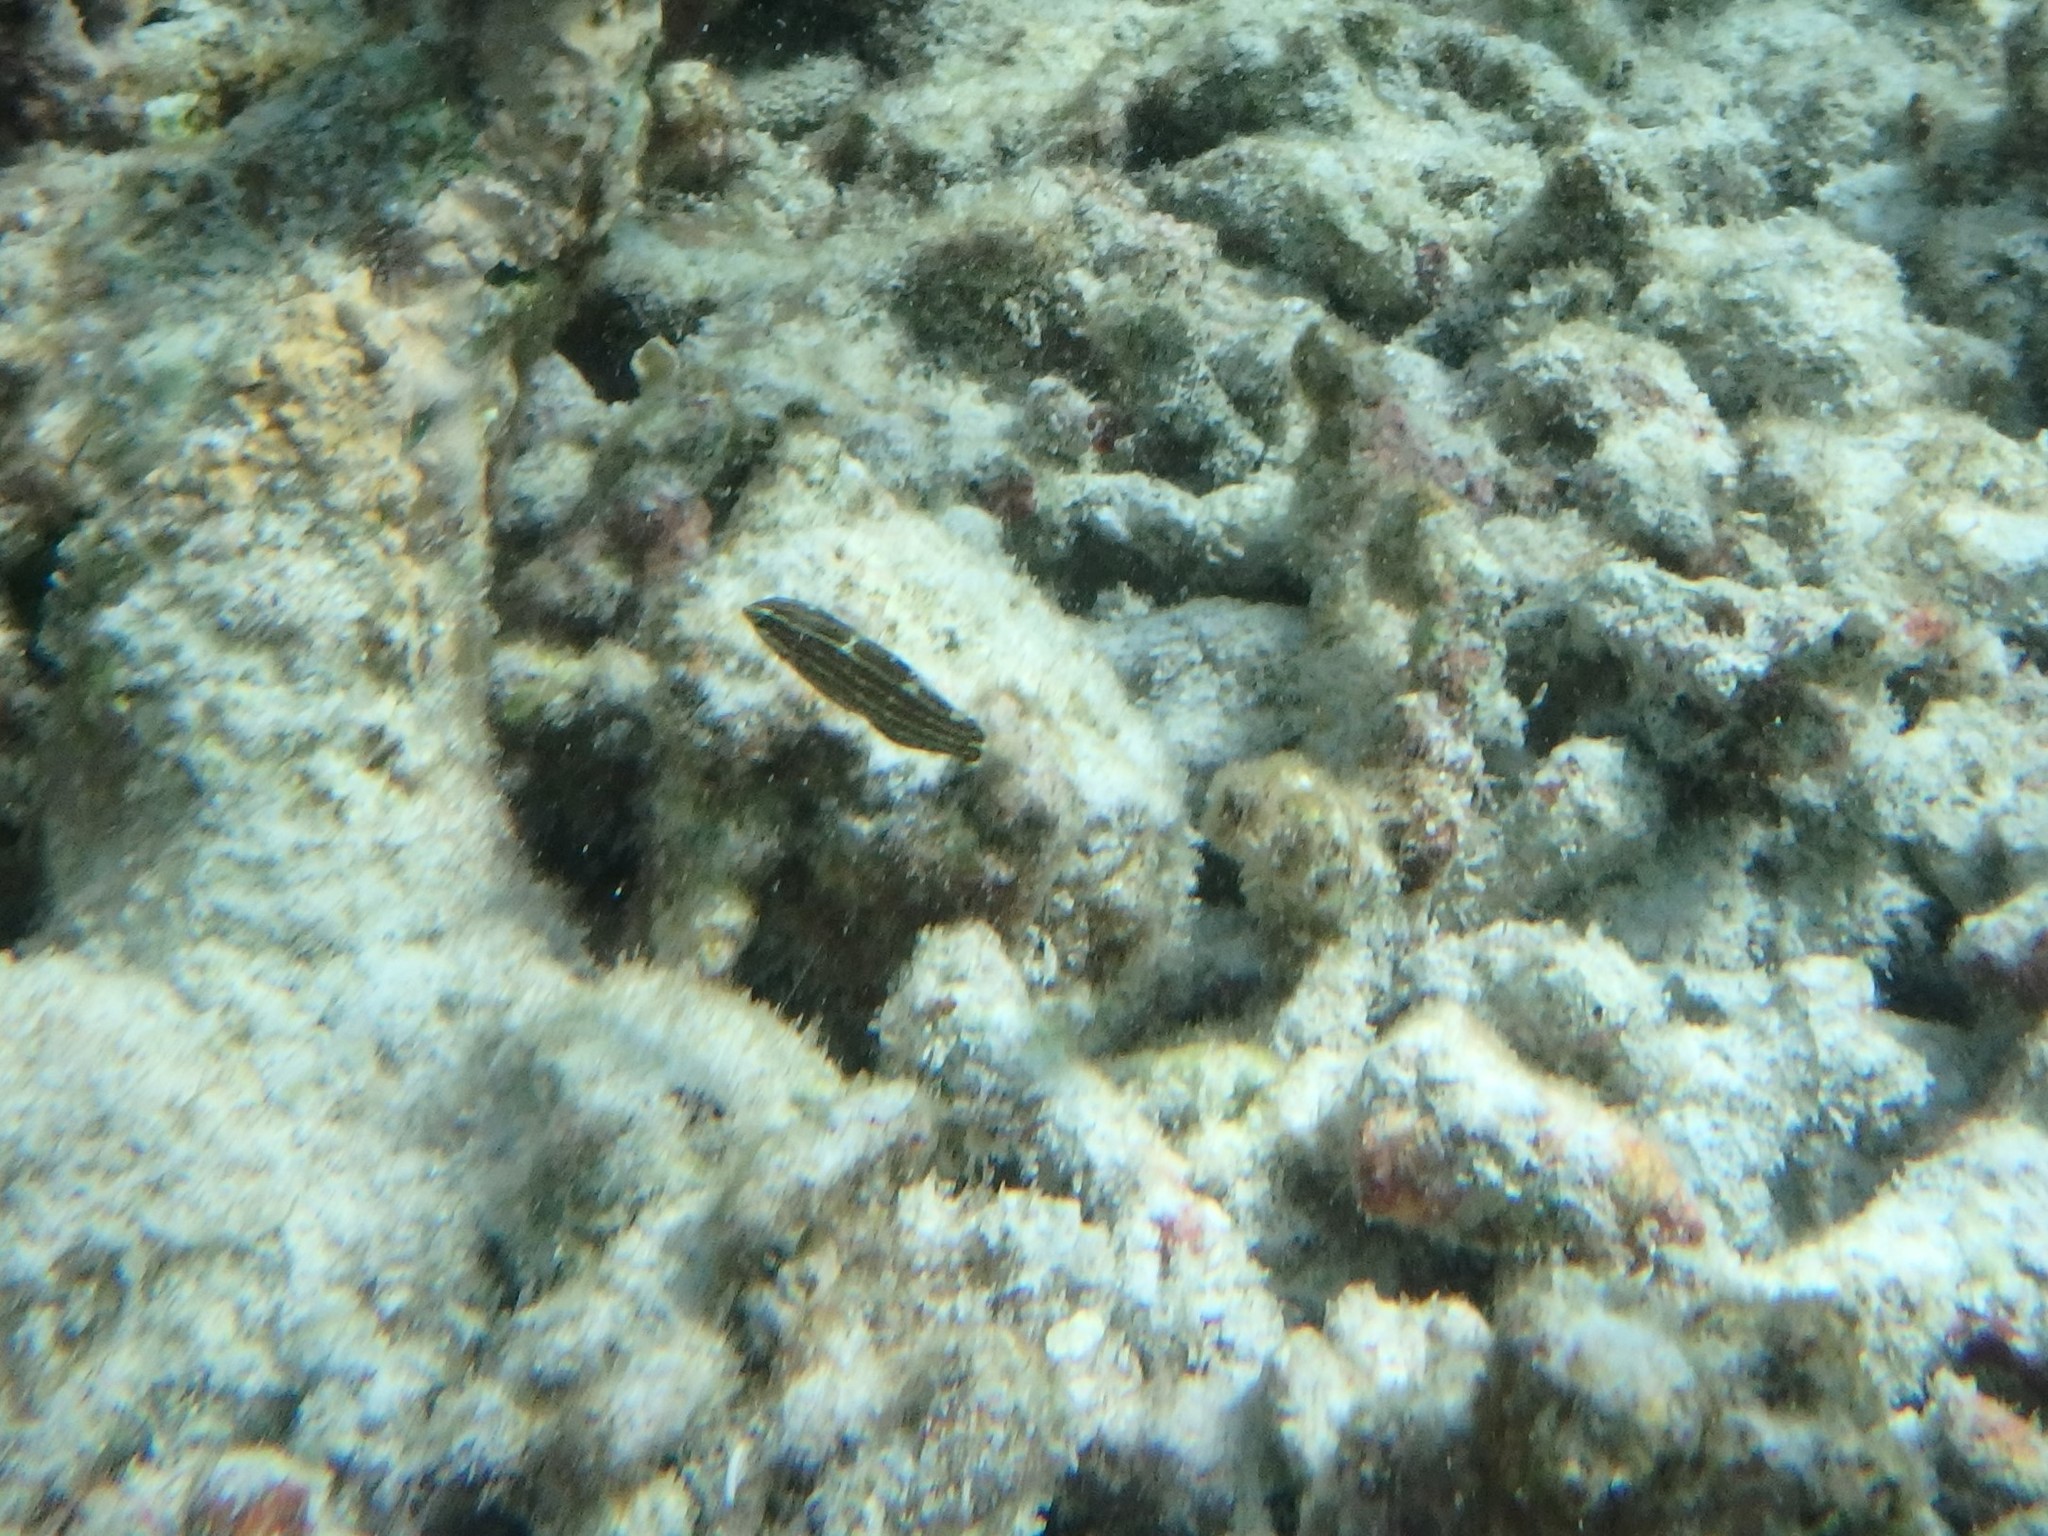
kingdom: Animalia
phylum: Chordata
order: Perciformes
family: Labridae
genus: Halichoeres
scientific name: Halichoeres cosmetus
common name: Adorned wrasse
